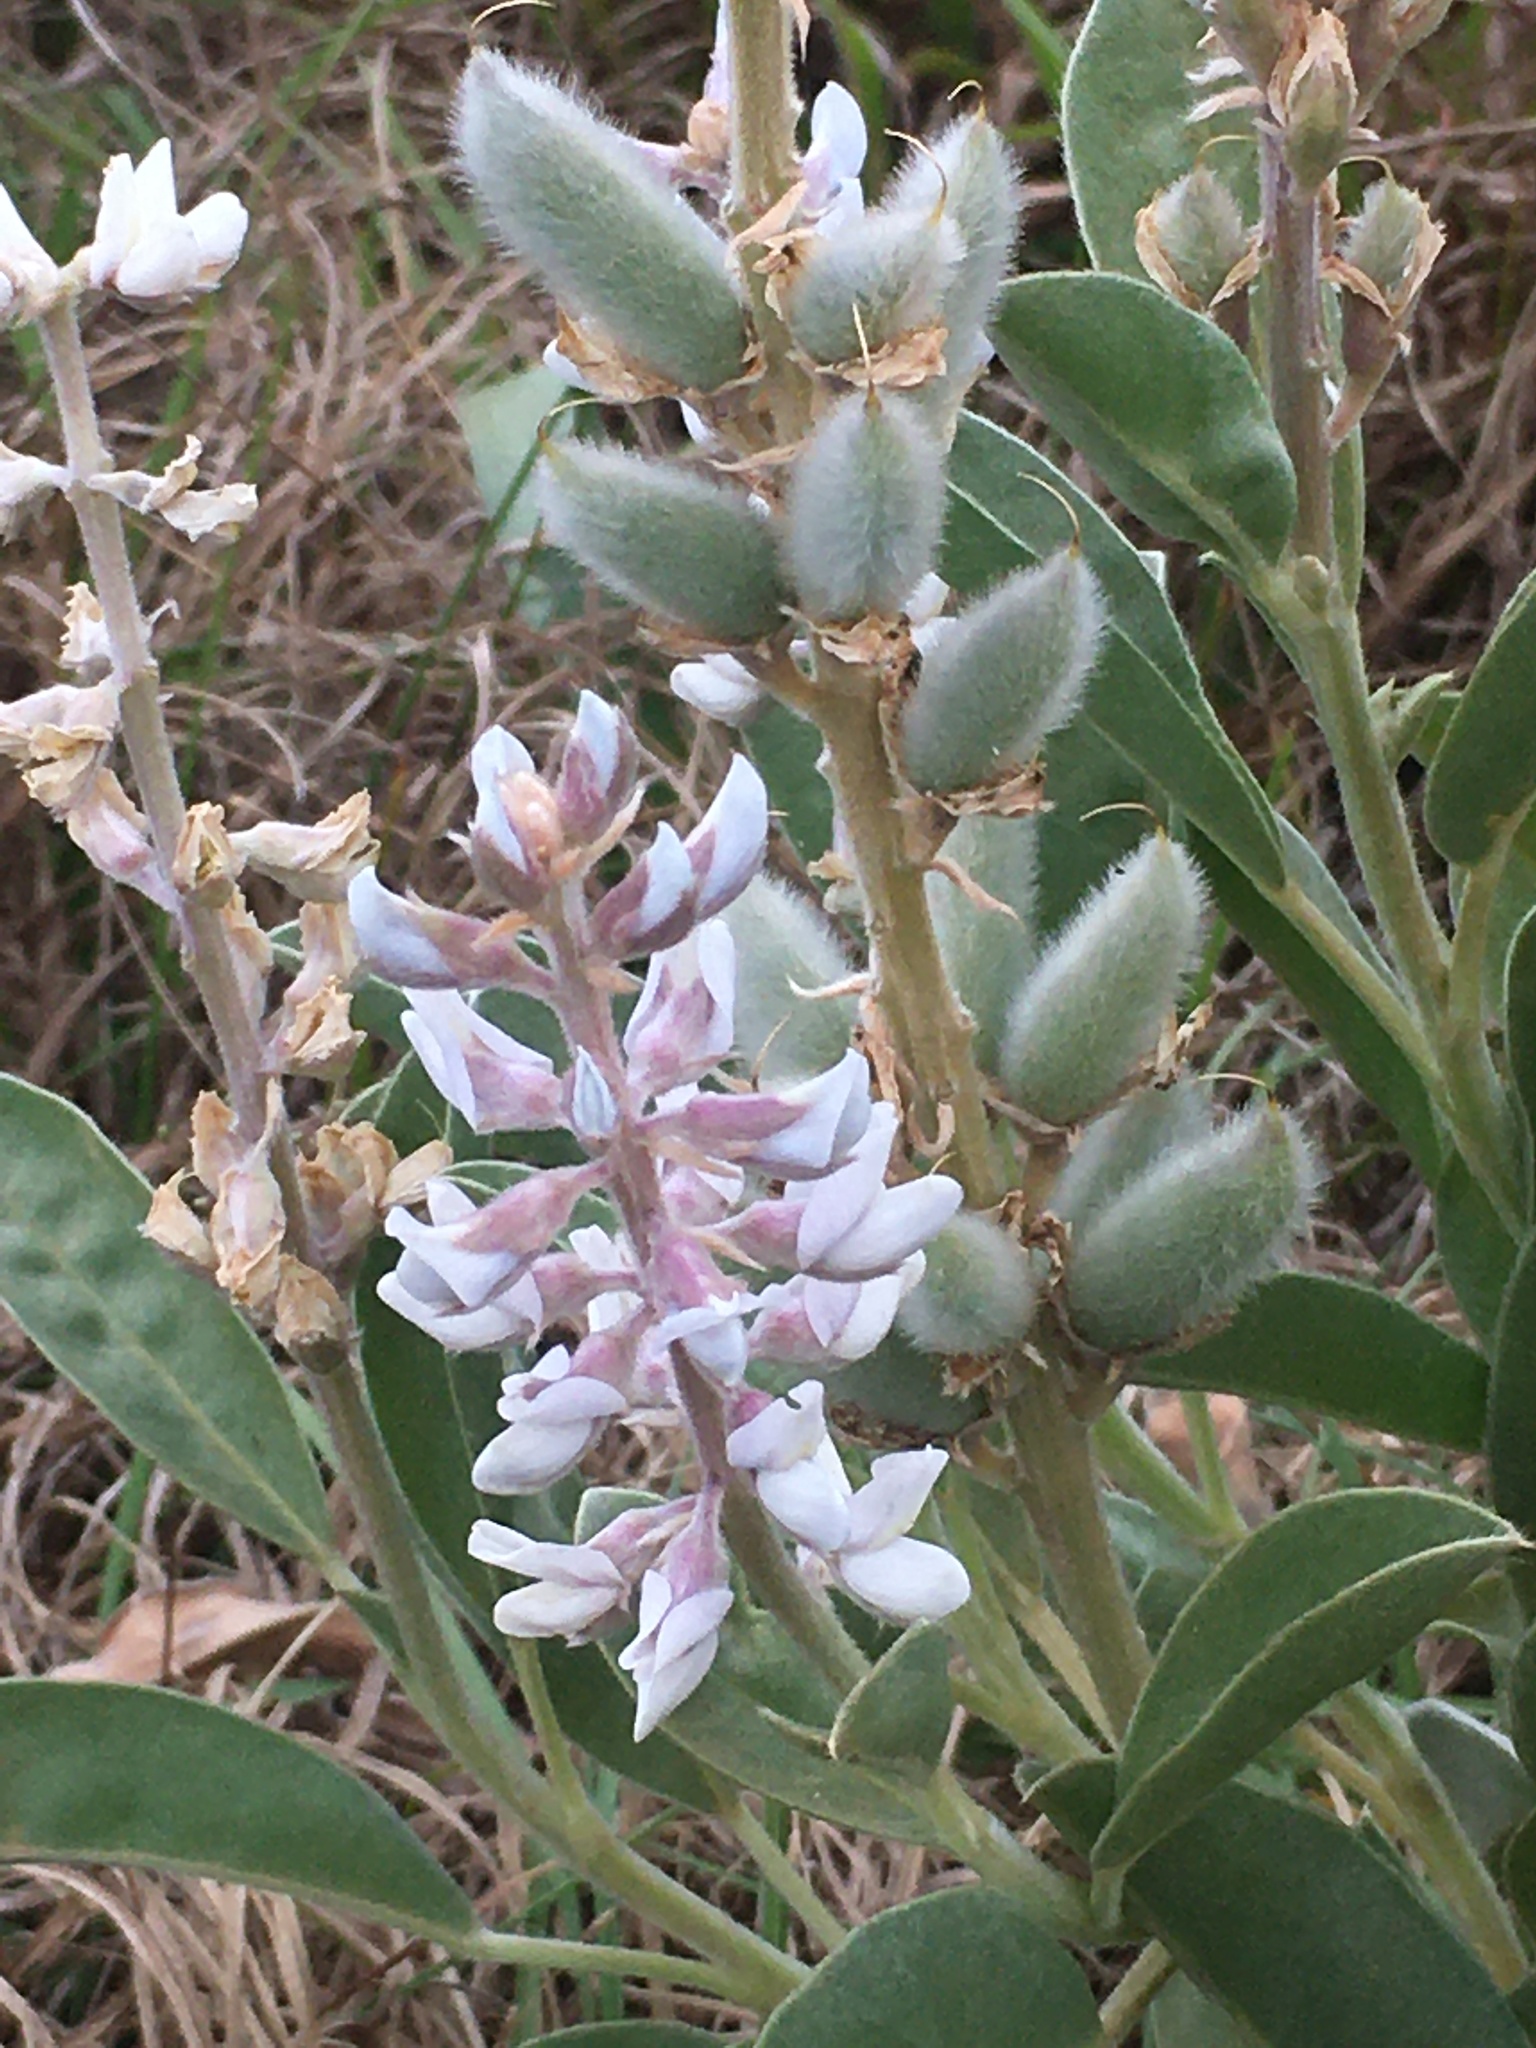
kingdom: Plantae
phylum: Tracheophyta
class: Magnoliopsida
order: Fabales
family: Fabaceae
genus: Lupinus
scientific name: Lupinus cumulicola
